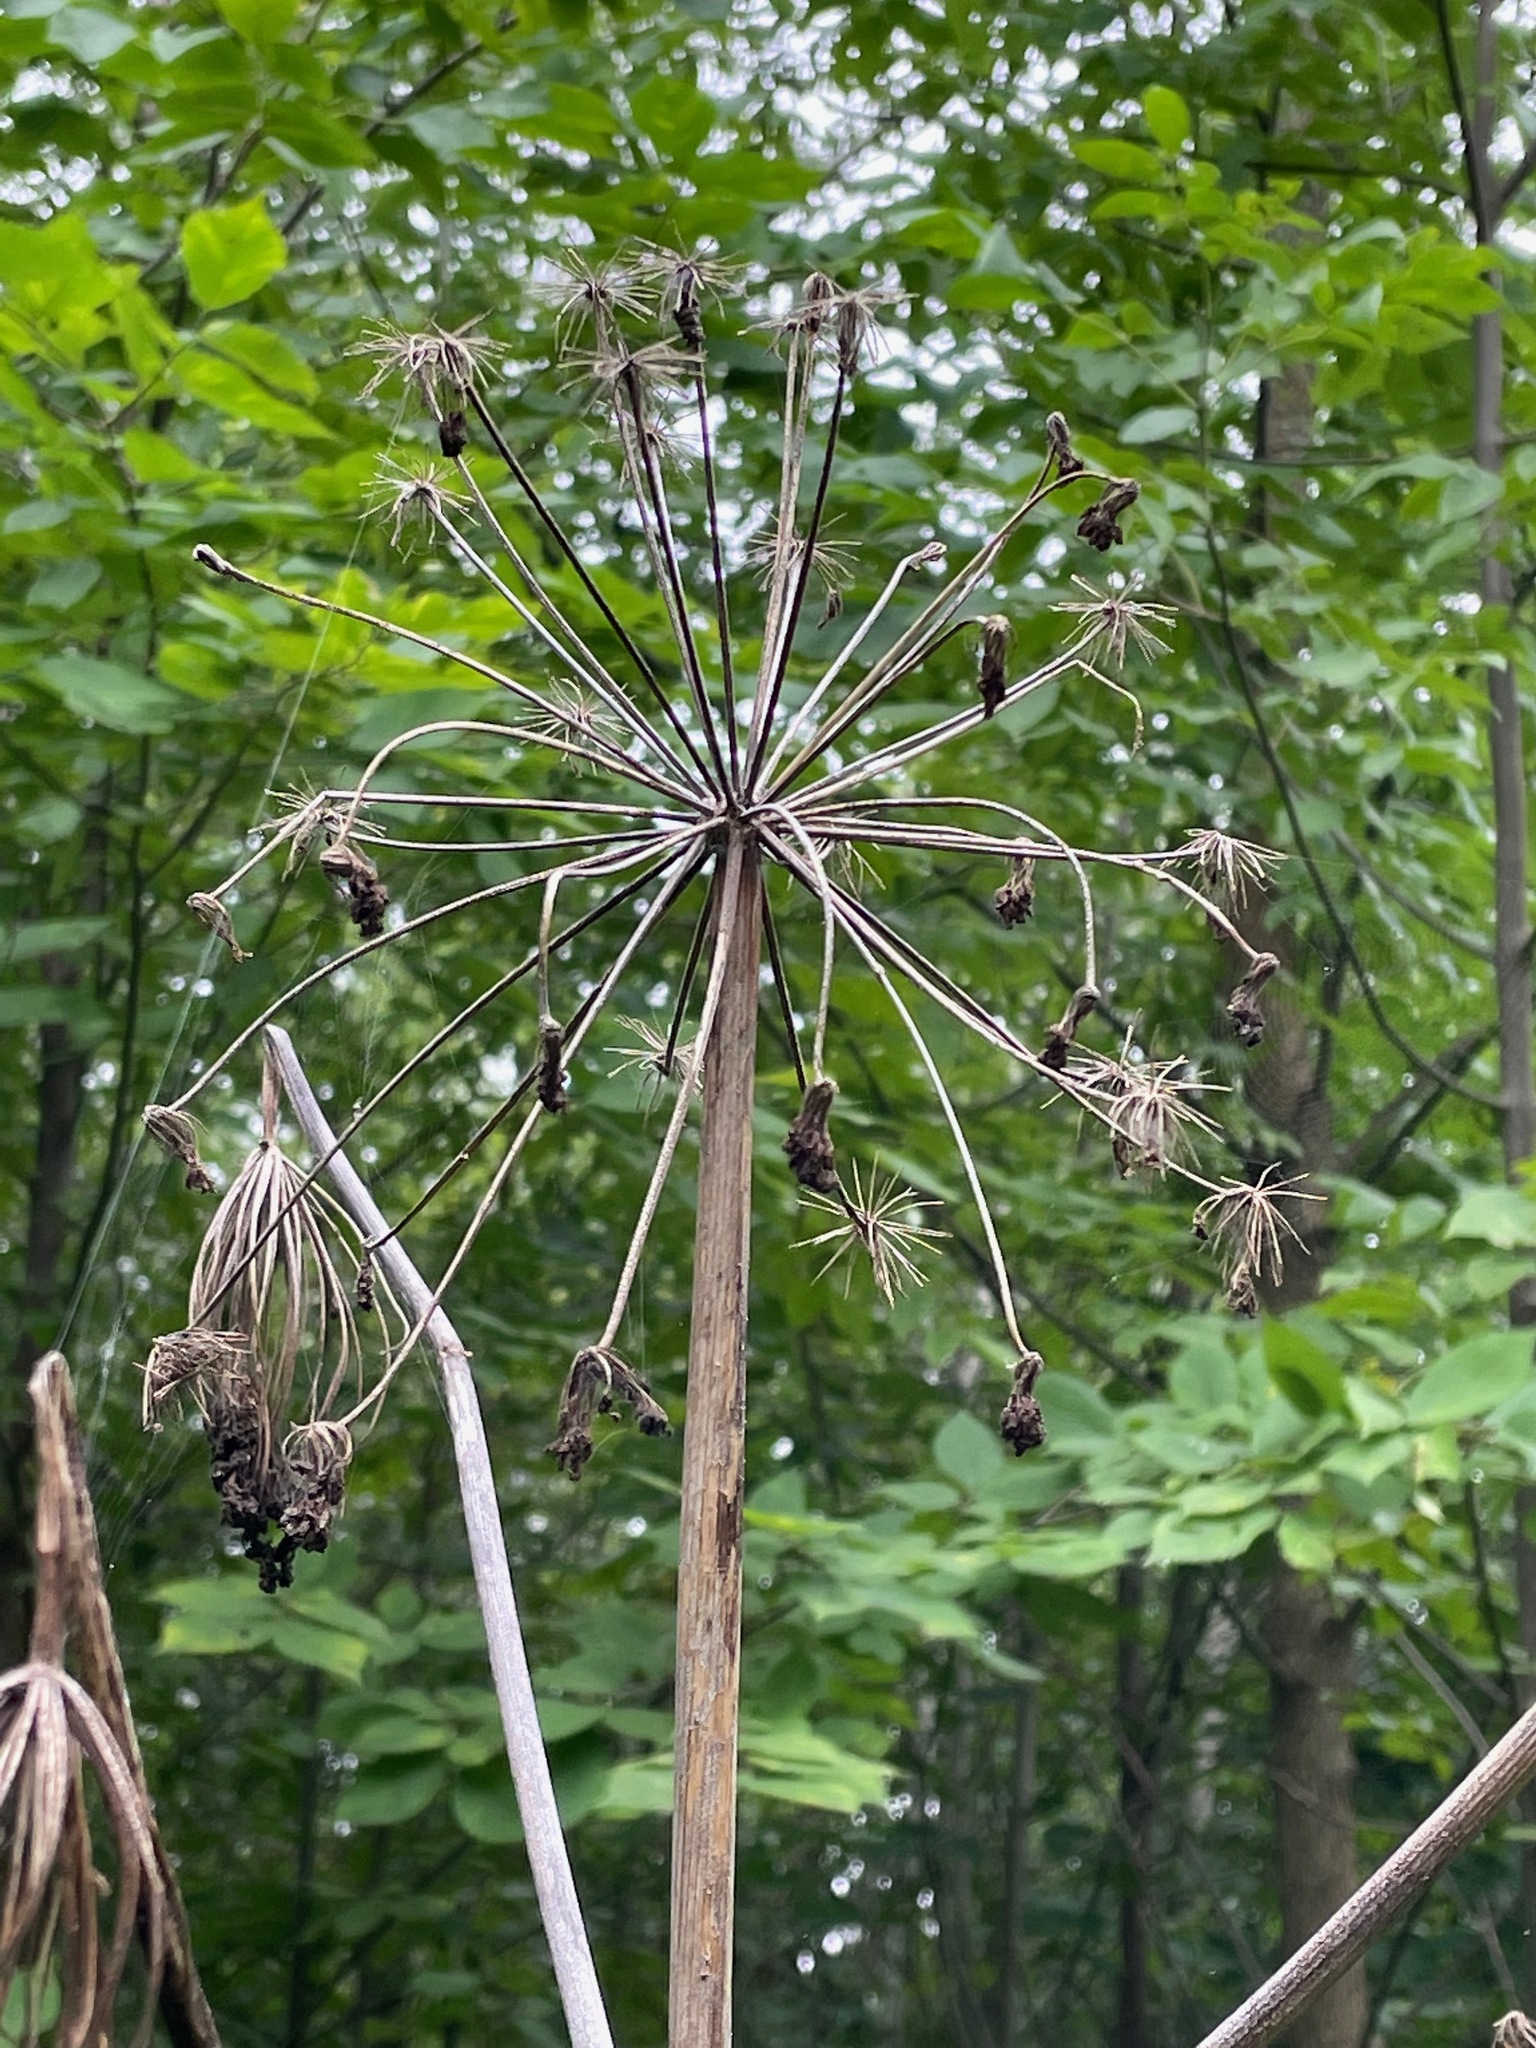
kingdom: Plantae
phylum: Tracheophyta
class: Magnoliopsida
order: Apiales
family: Apiaceae
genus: Angelica
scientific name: Angelica atropurpurea
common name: Great angelica
